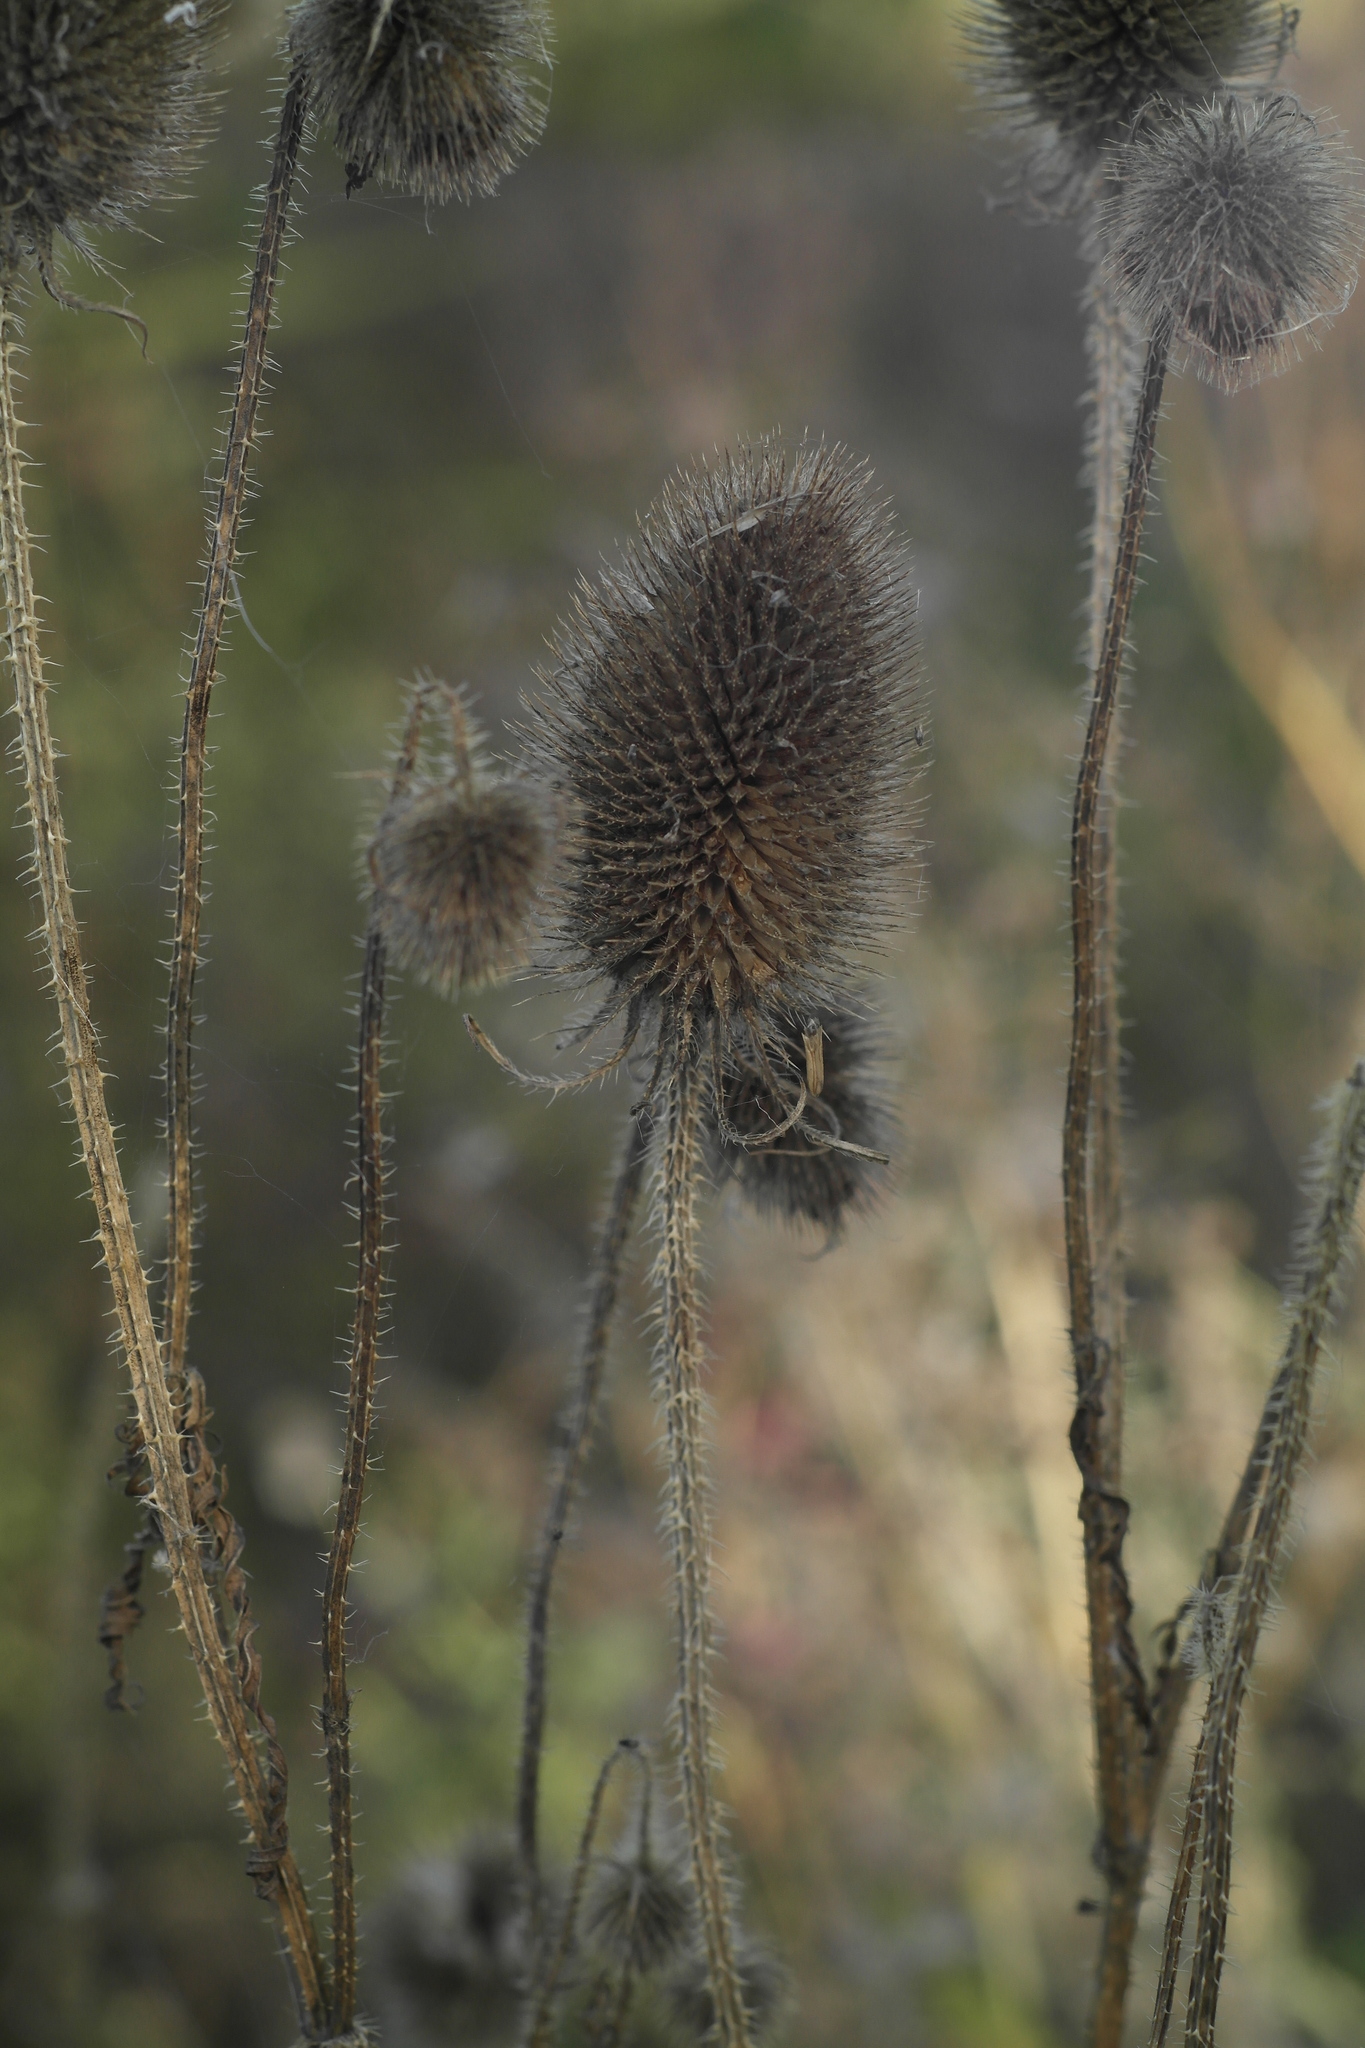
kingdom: Plantae
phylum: Tracheophyta
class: Magnoliopsida
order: Dipsacales
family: Caprifoliaceae
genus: Dipsacus
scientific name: Dipsacus
